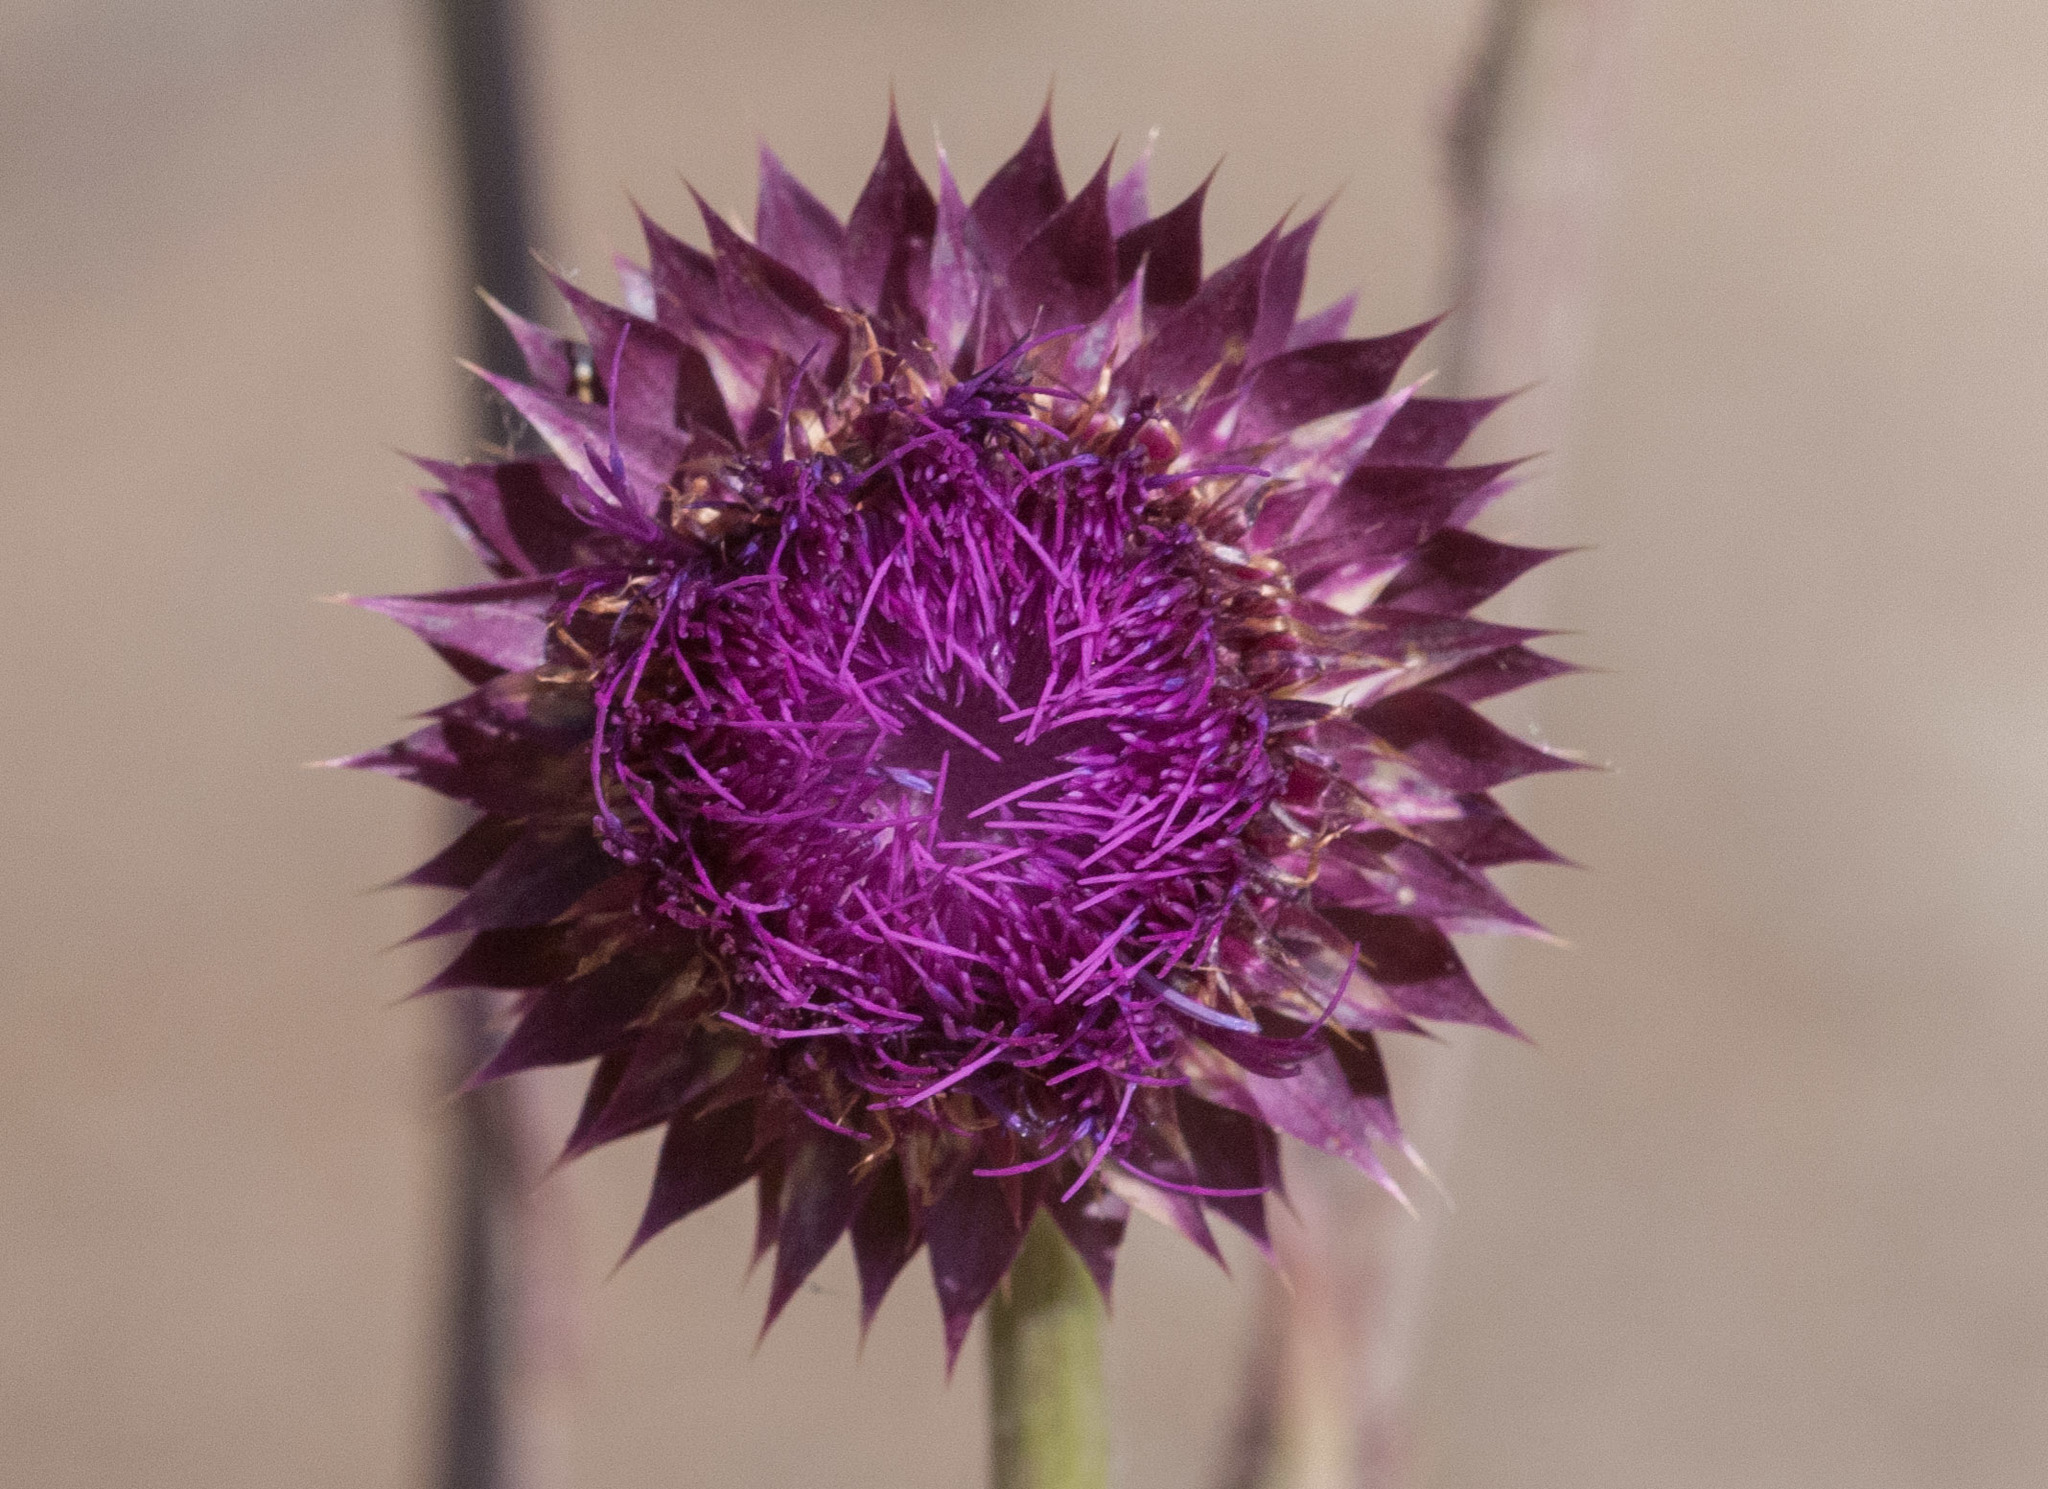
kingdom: Plantae
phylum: Tracheophyta
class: Magnoliopsida
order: Asterales
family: Asteraceae
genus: Carduus
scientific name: Carduus nutans
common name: Musk thistle
